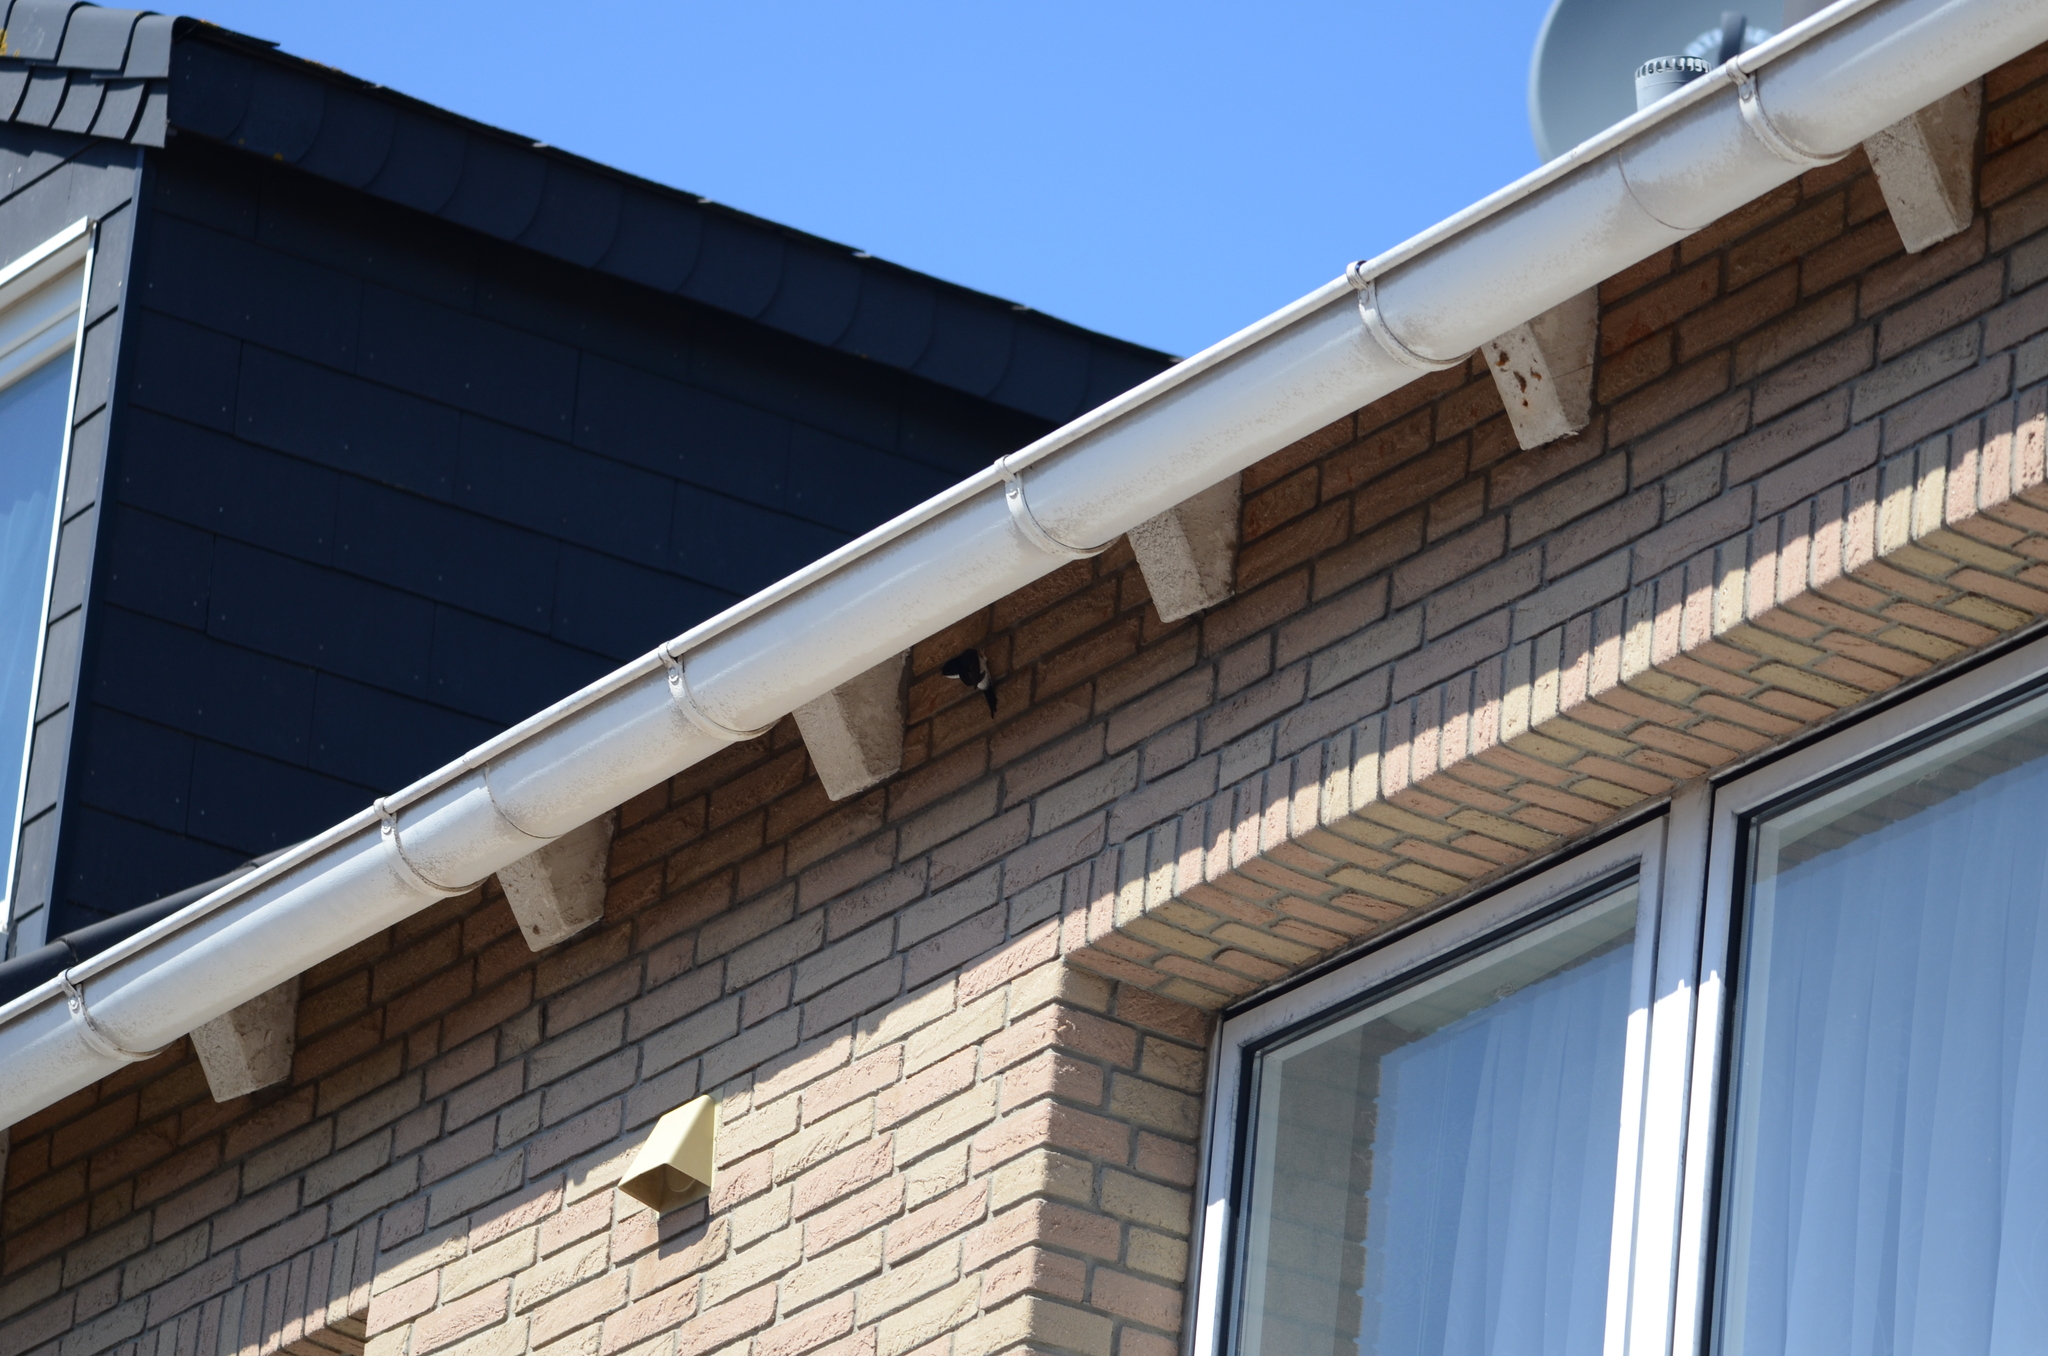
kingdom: Animalia
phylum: Chordata
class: Aves
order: Passeriformes
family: Hirundinidae
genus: Delichon
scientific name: Delichon urbicum
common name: Common house martin
